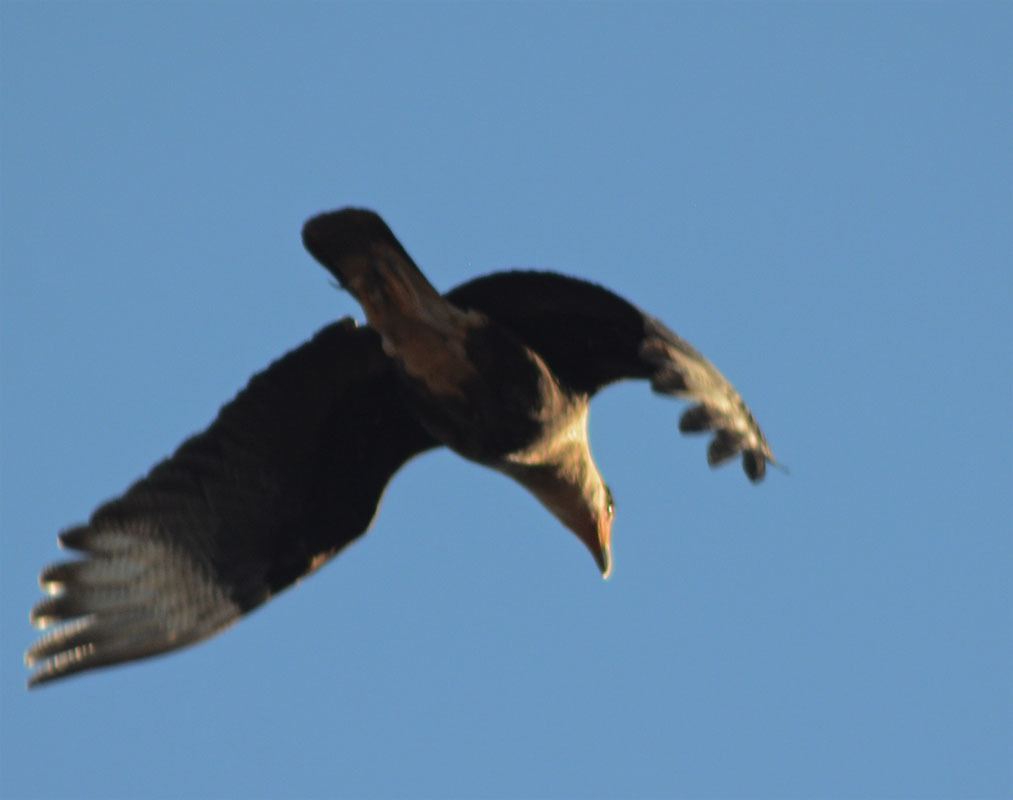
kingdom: Animalia
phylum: Chordata
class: Aves
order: Falconiformes
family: Falconidae
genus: Caracara
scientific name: Caracara plancus
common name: Southern caracara
